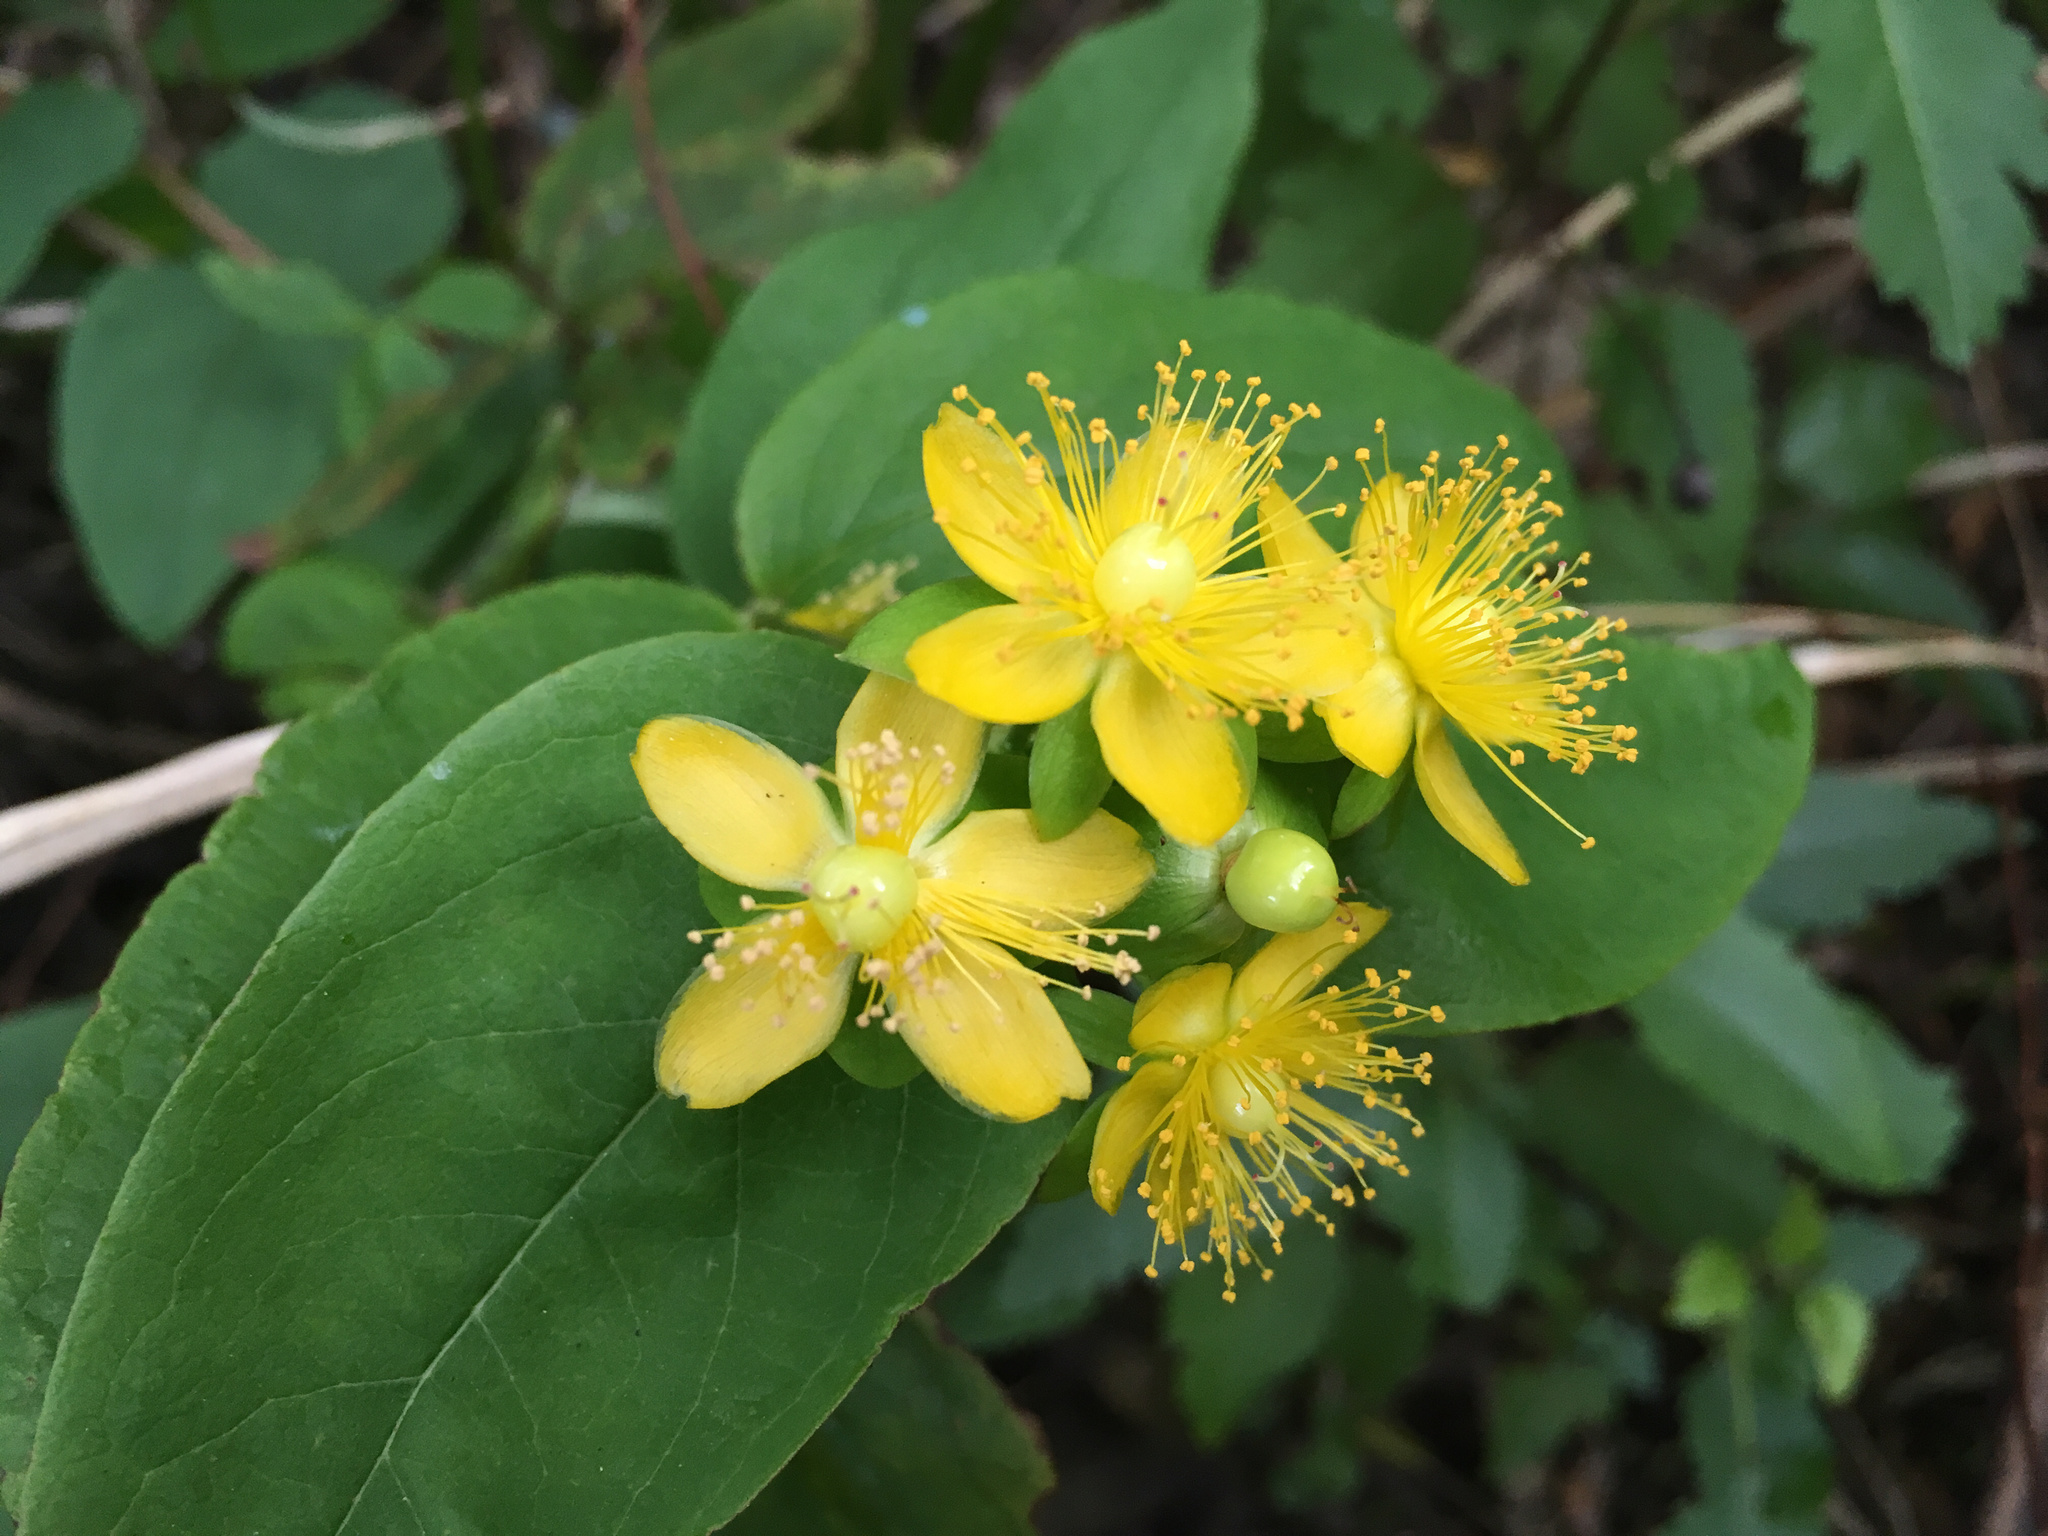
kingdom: Plantae
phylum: Tracheophyta
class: Magnoliopsida
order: Malpighiales
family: Hypericaceae
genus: Hypericum
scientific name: Hypericum androsaemum
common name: Sweet-amber
